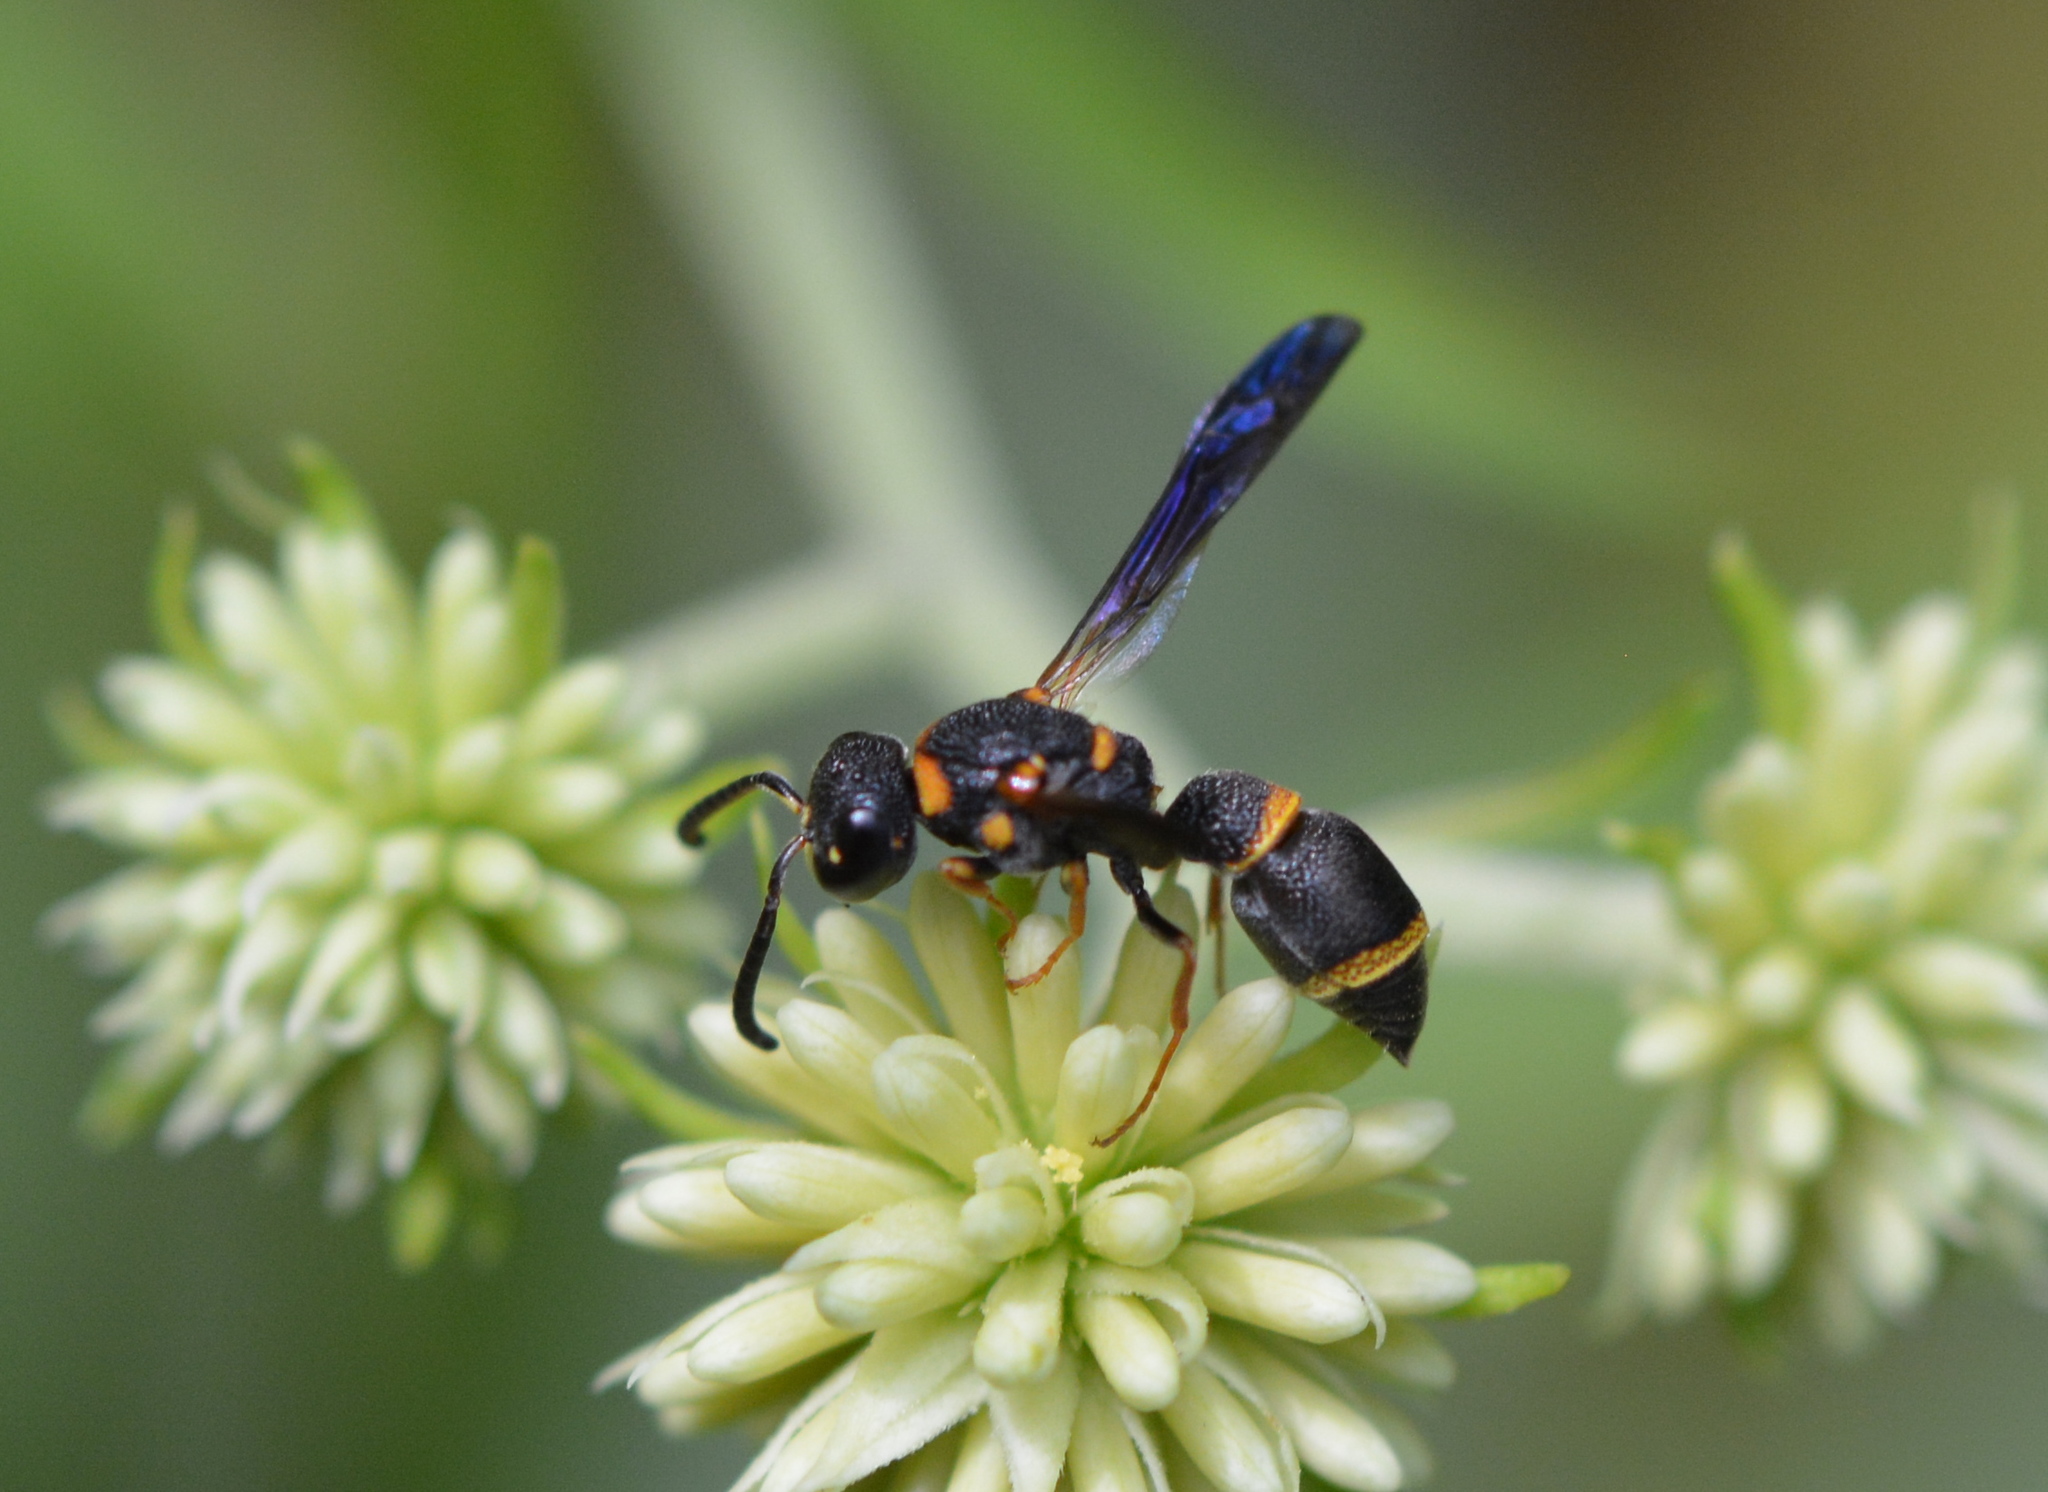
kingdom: Animalia
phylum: Arthropoda
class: Insecta
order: Hymenoptera
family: Eumenidae
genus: Parancistrocerus
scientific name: Parancistrocerus perennis
